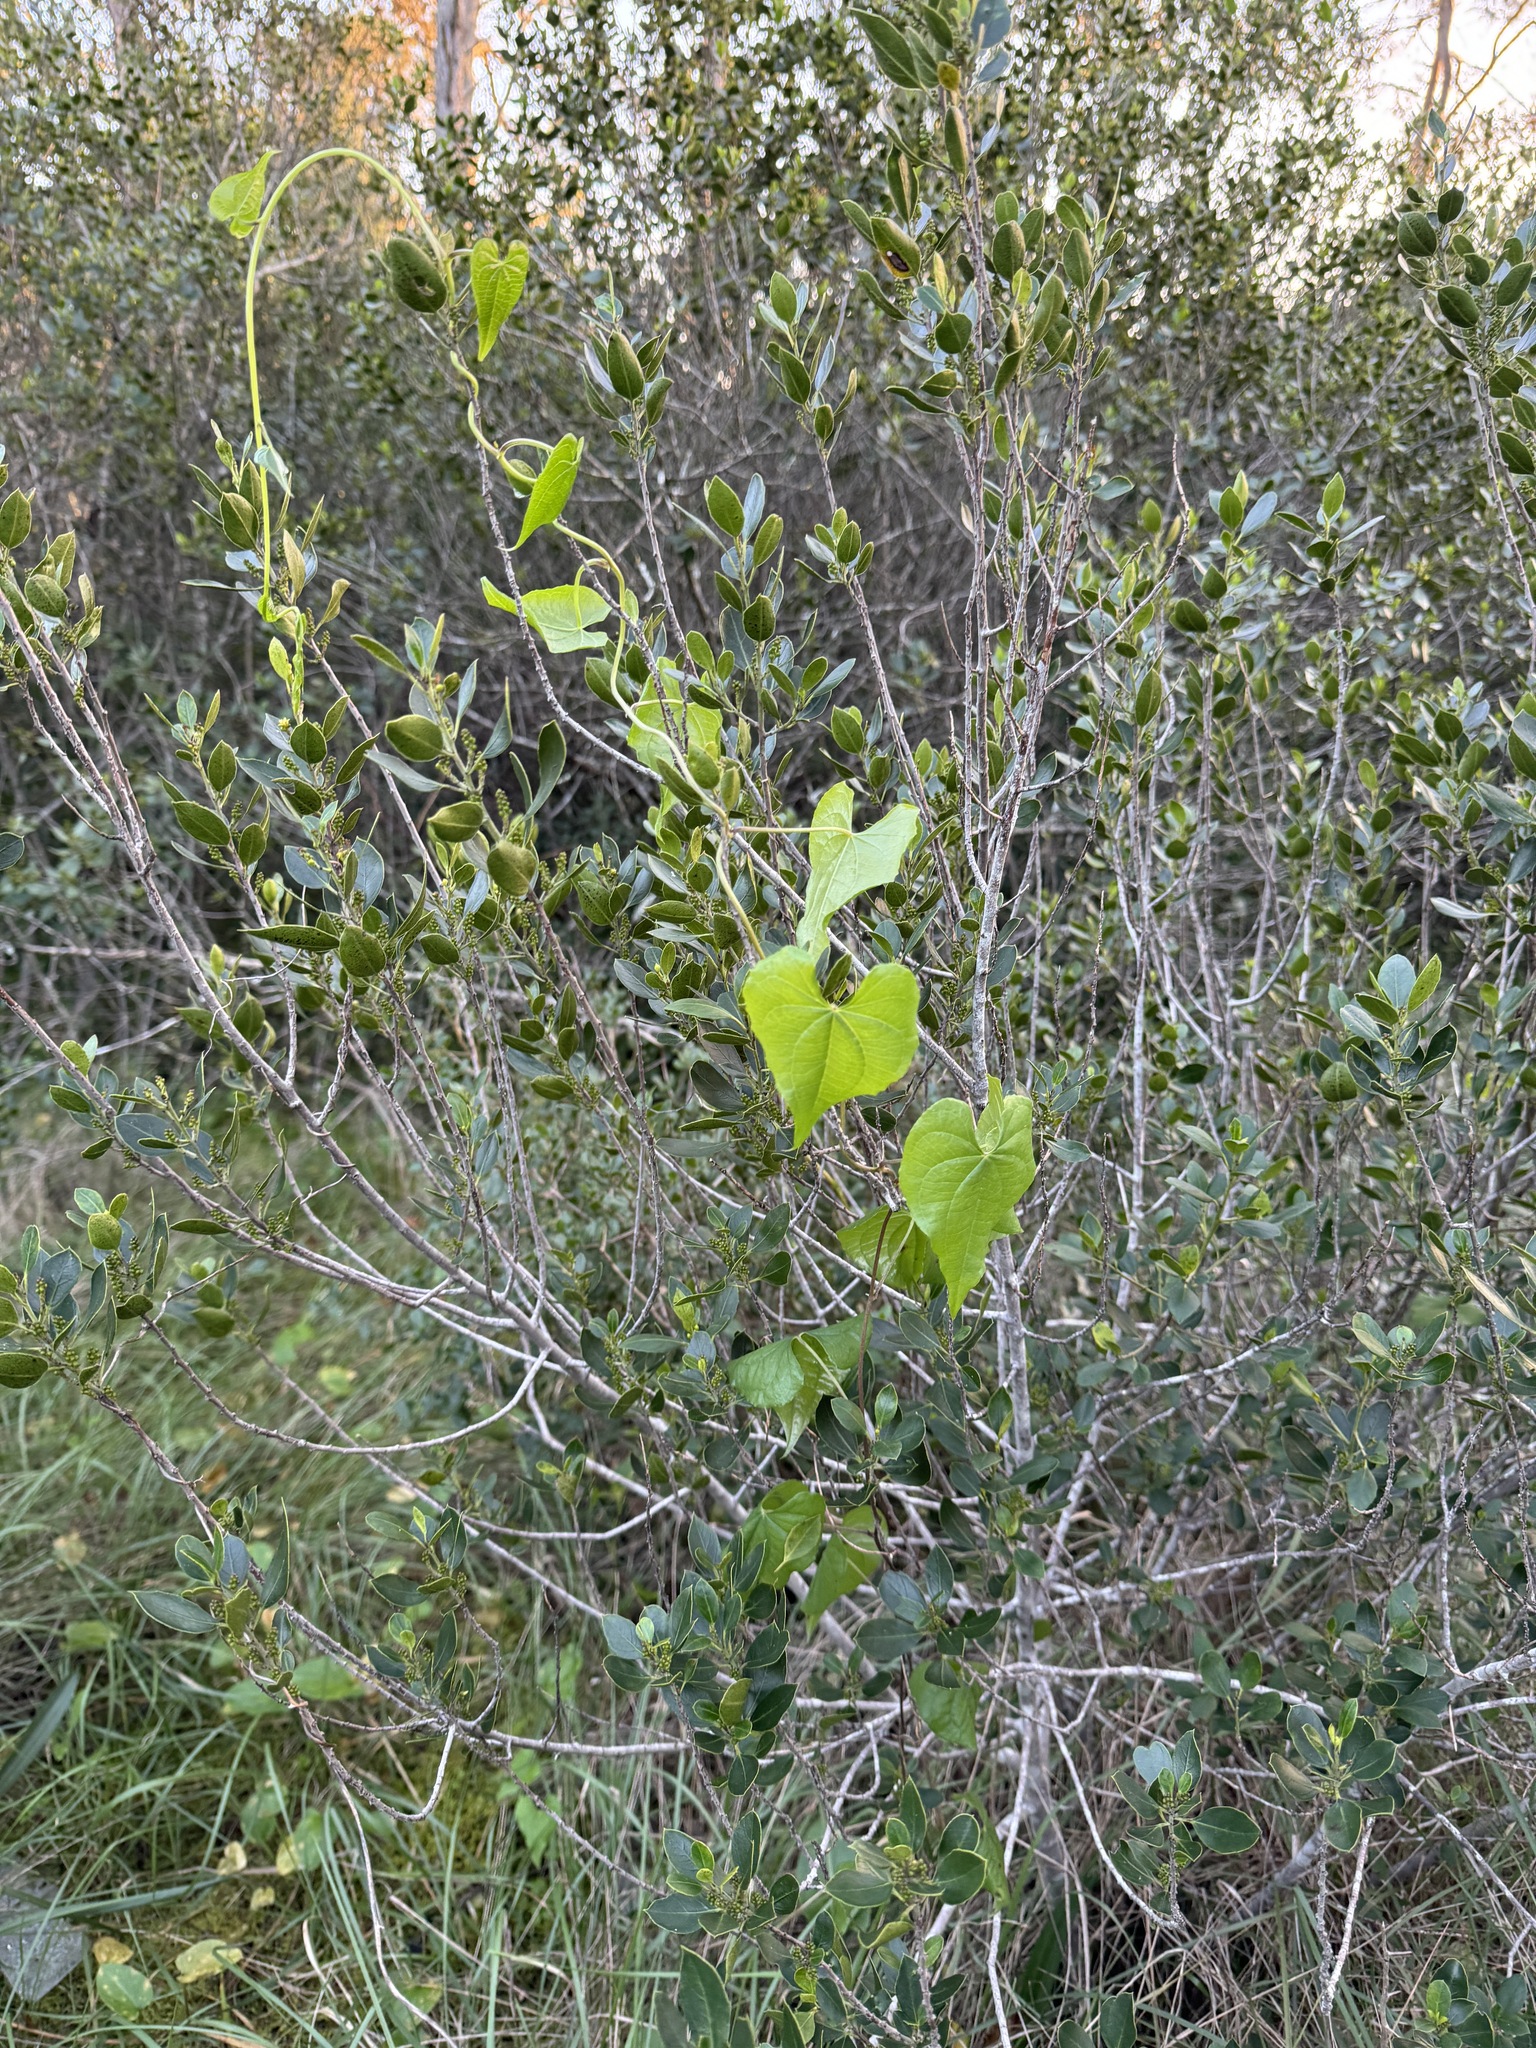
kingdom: Plantae
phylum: Tracheophyta
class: Liliopsida
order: Dioscoreales
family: Dioscoreaceae
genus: Dioscorea
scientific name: Dioscorea communis
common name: Black-bindweed
